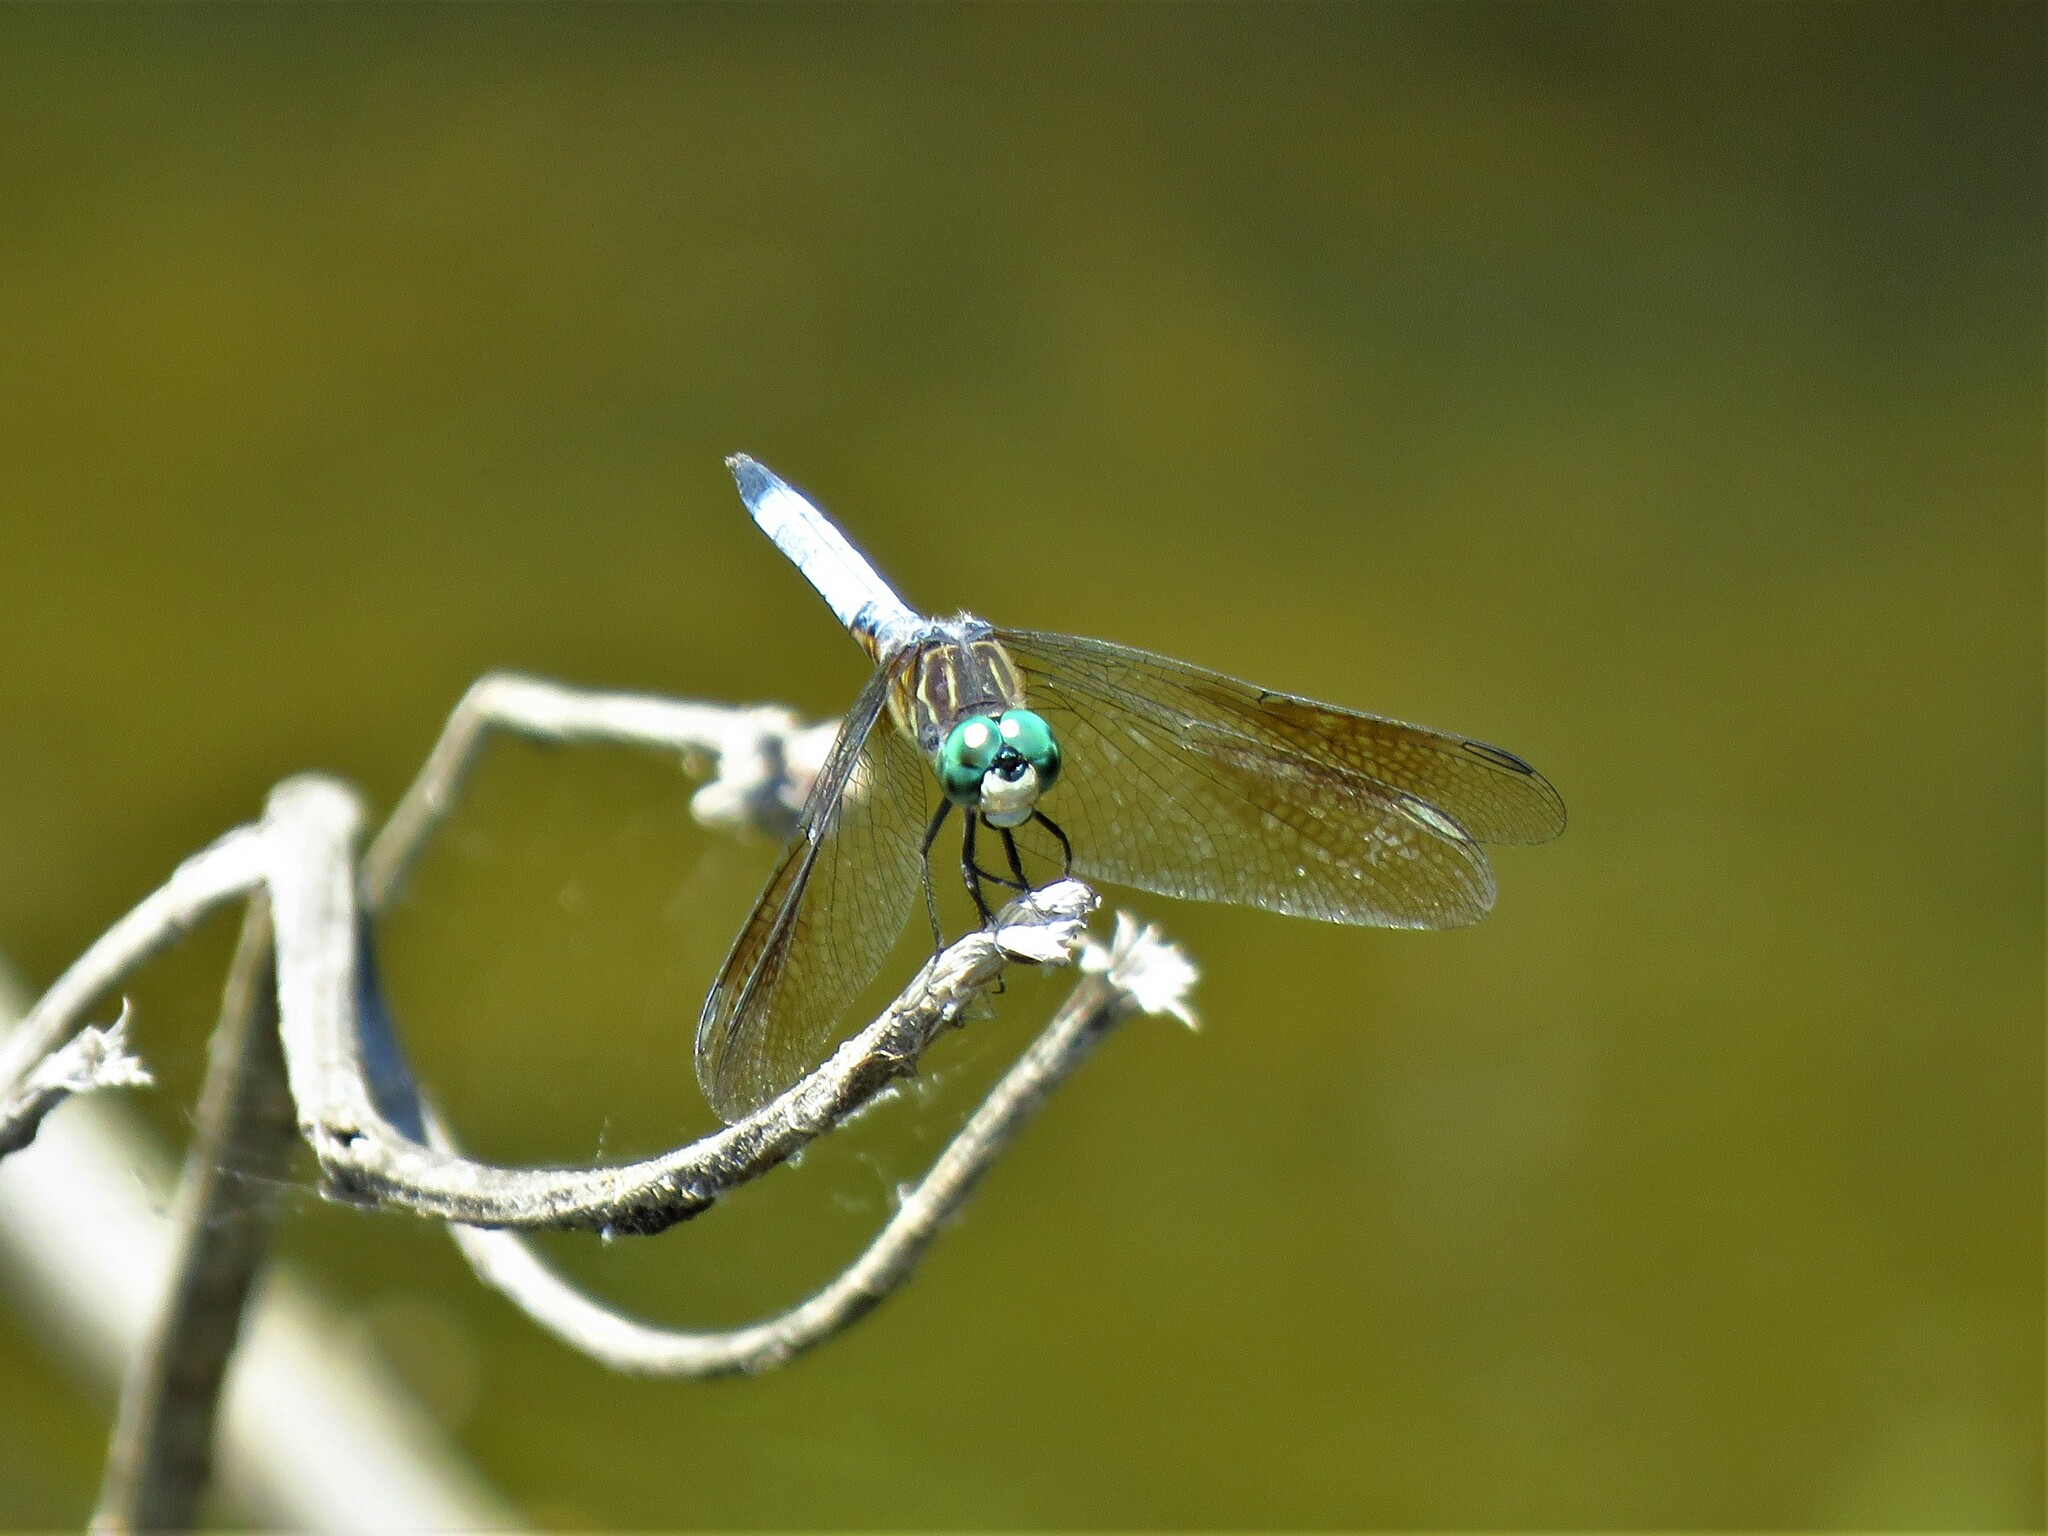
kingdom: Animalia
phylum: Arthropoda
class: Insecta
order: Odonata
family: Libellulidae
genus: Pachydiplax
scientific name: Pachydiplax longipennis
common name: Blue dasher
